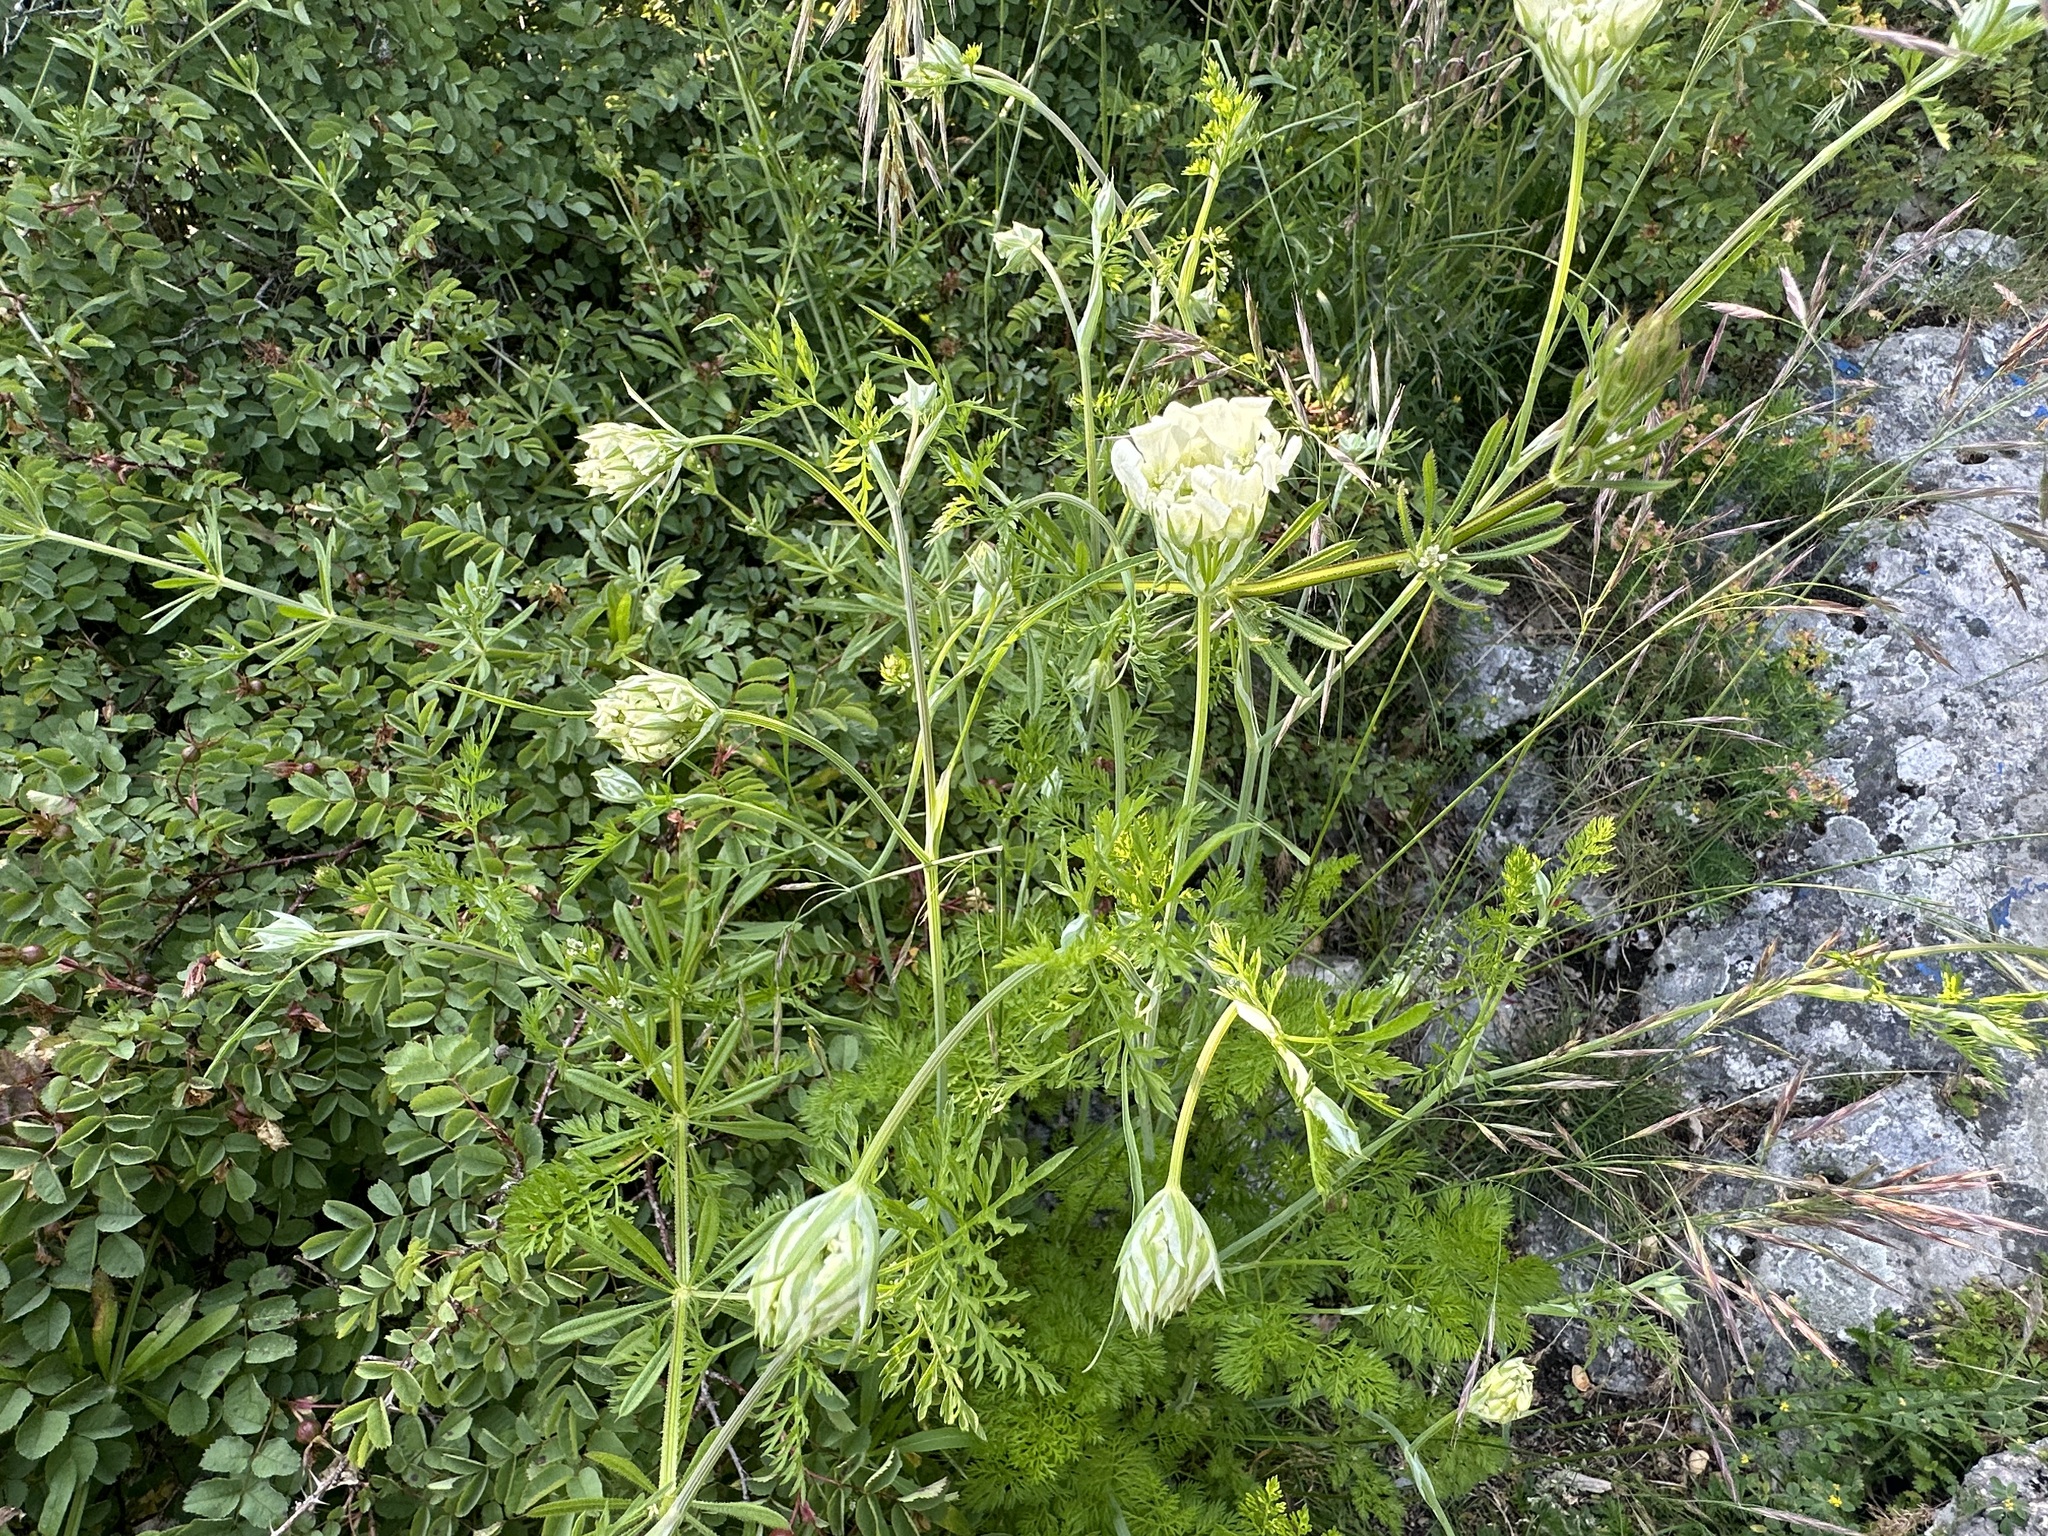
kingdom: Plantae
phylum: Tracheophyta
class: Magnoliopsida
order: Apiales
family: Apiaceae
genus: Orlaya
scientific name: Orlaya grandiflora
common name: White lace flower
